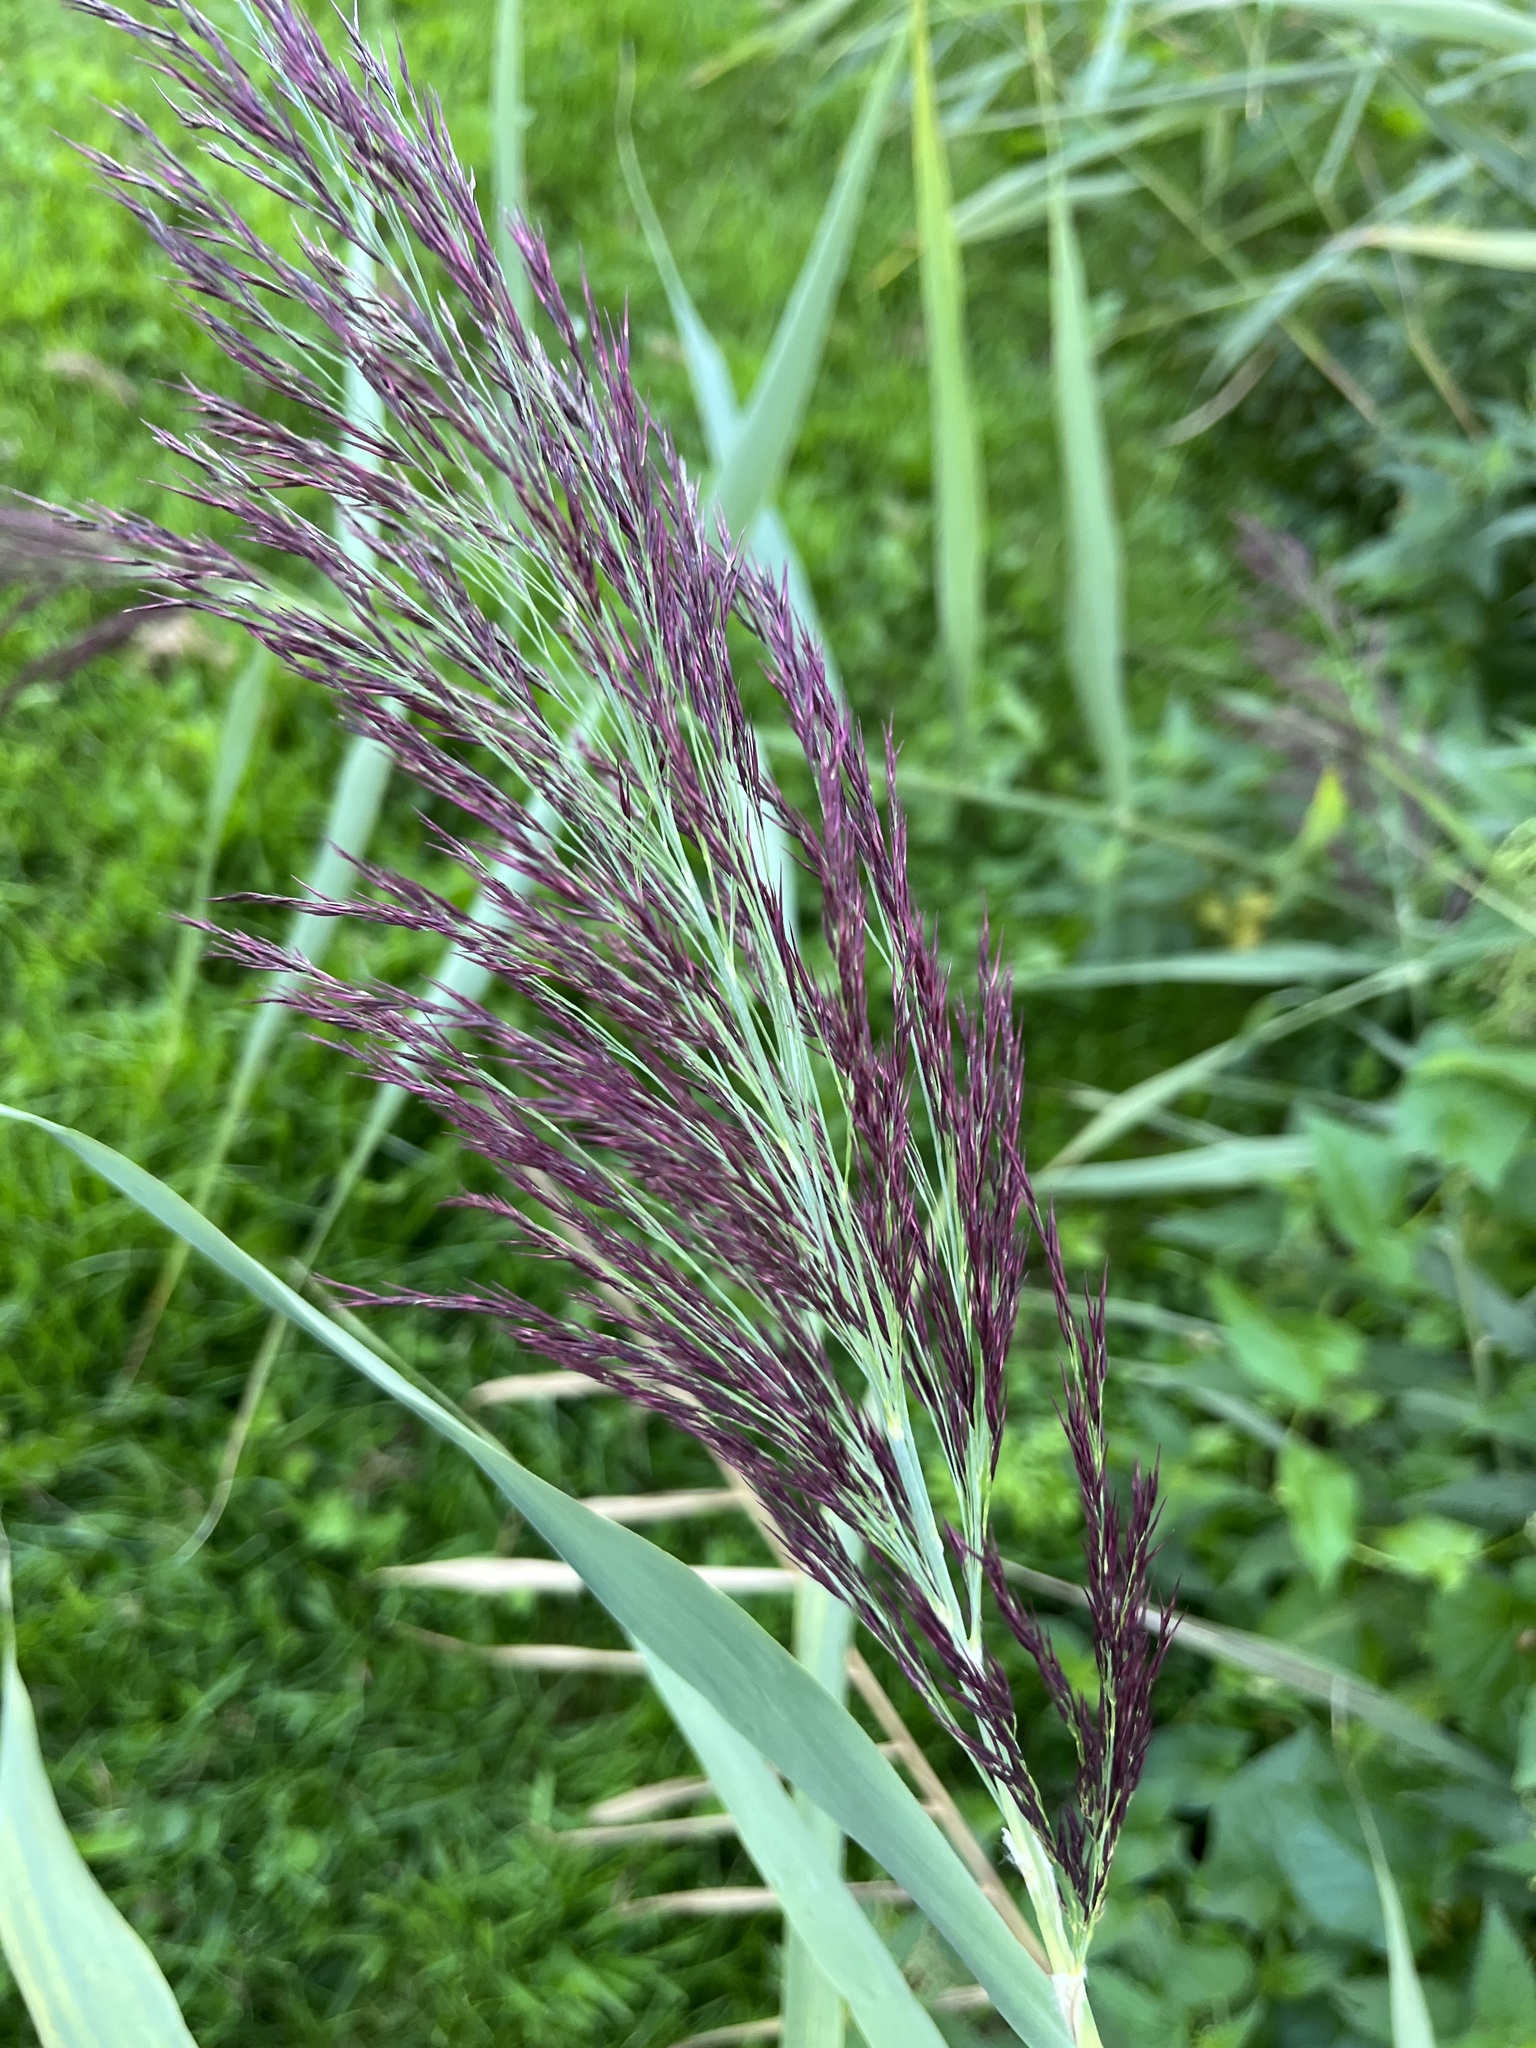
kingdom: Plantae
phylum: Tracheophyta
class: Liliopsida
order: Poales
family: Poaceae
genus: Phragmites
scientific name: Phragmites australis
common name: Common reed
